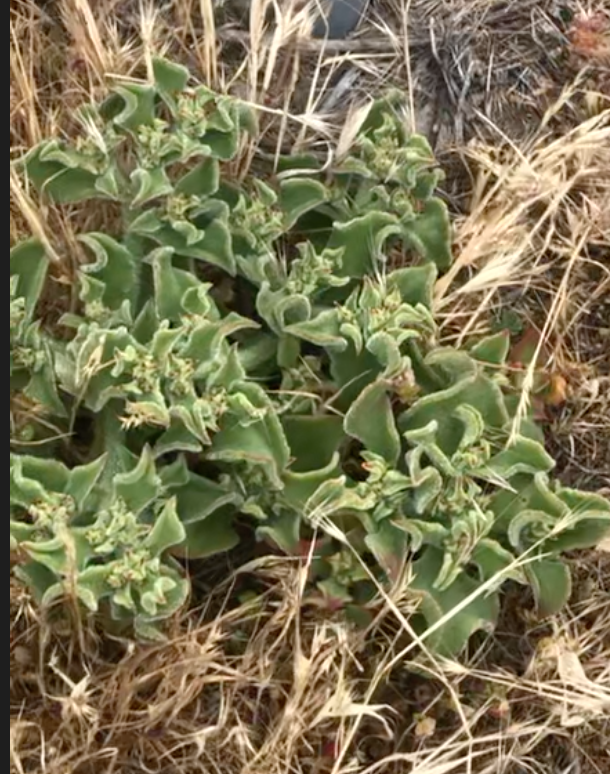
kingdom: Plantae
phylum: Tracheophyta
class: Magnoliopsida
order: Caryophyllales
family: Aizoaceae
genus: Mesembryanthemum
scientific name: Mesembryanthemum crystallinum
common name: Common iceplant
